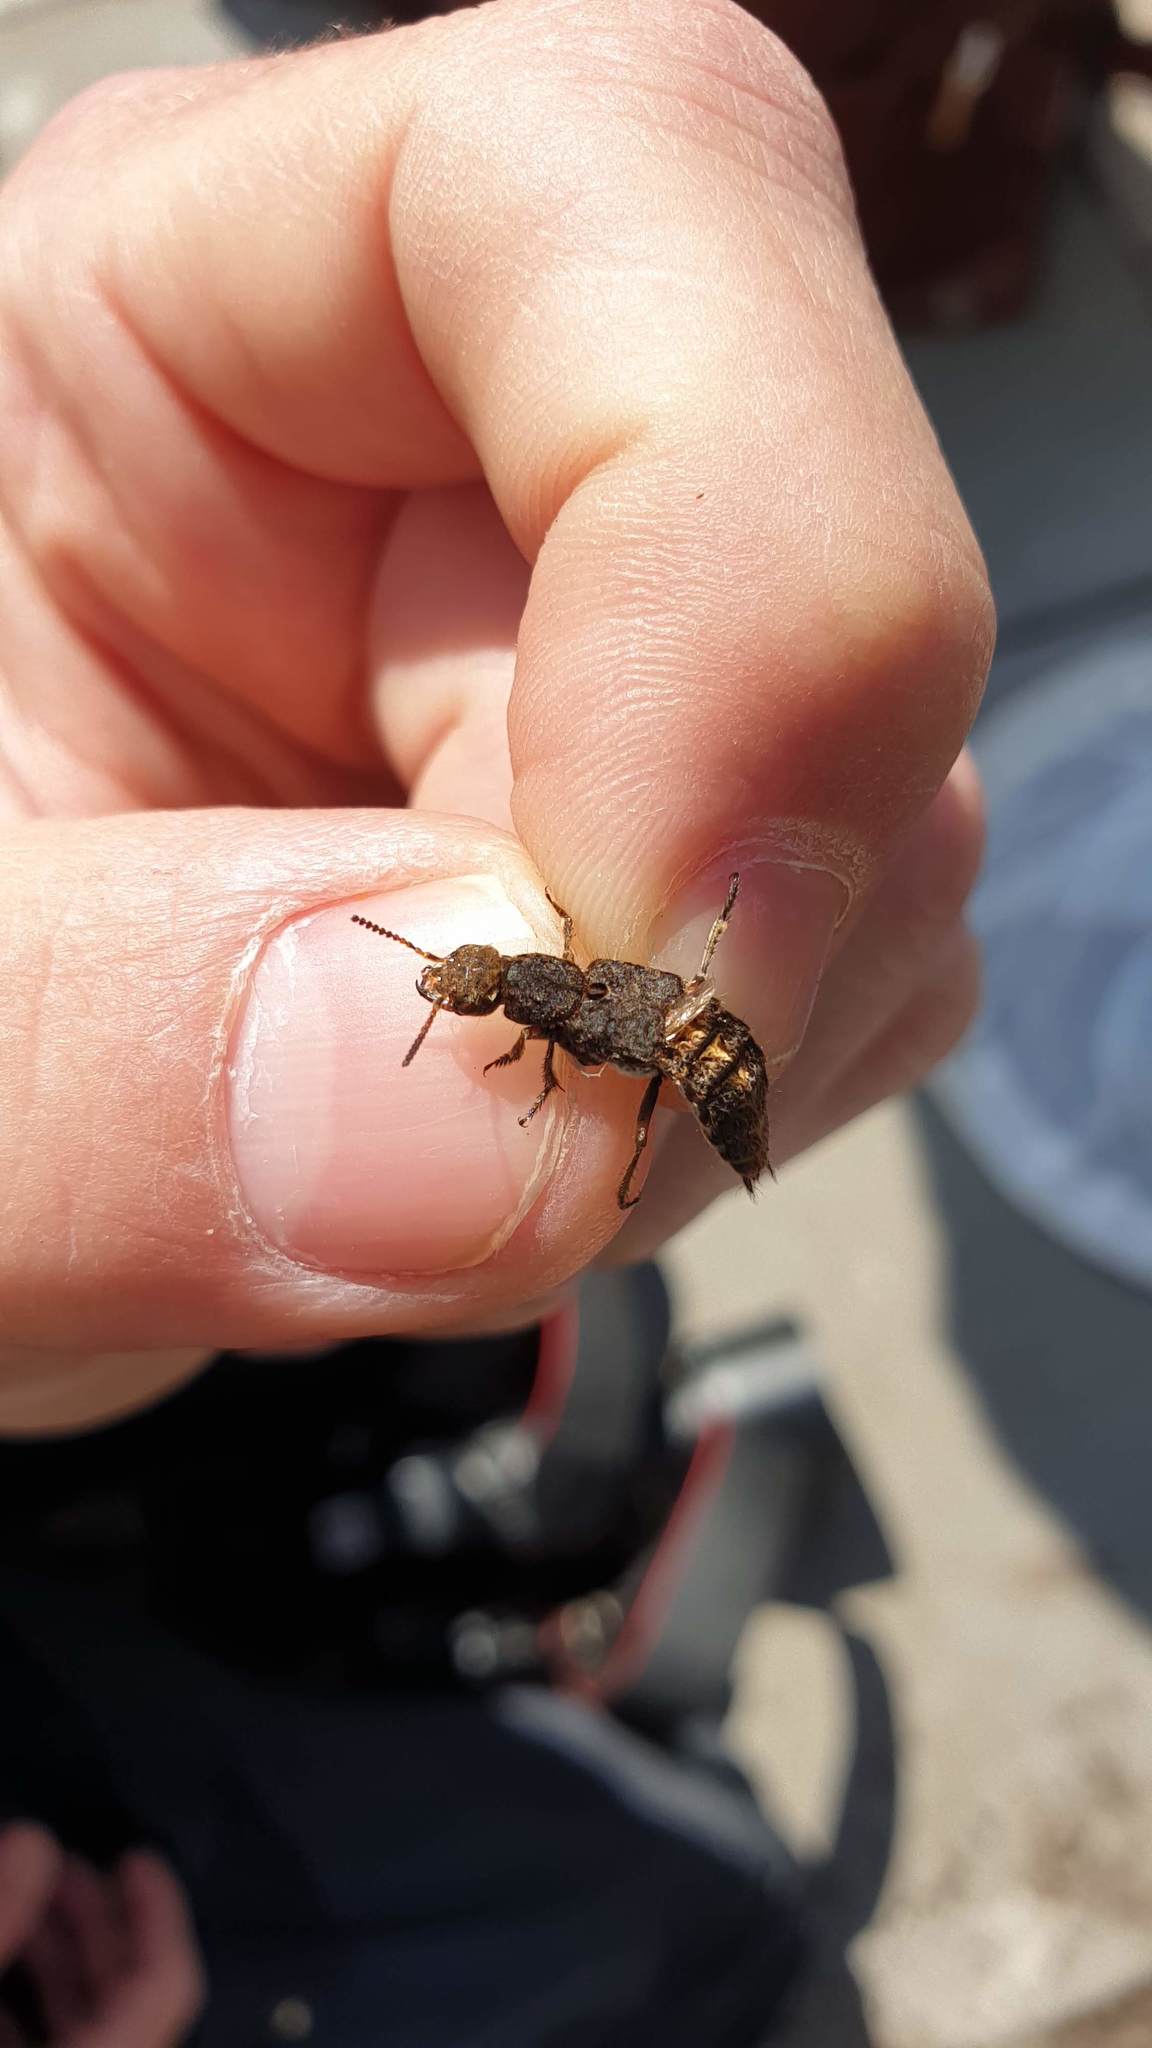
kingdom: Animalia
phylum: Arthropoda
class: Insecta
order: Coleoptera
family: Staphylinidae
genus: Dinothenarus
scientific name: Dinothenarus pubescens
